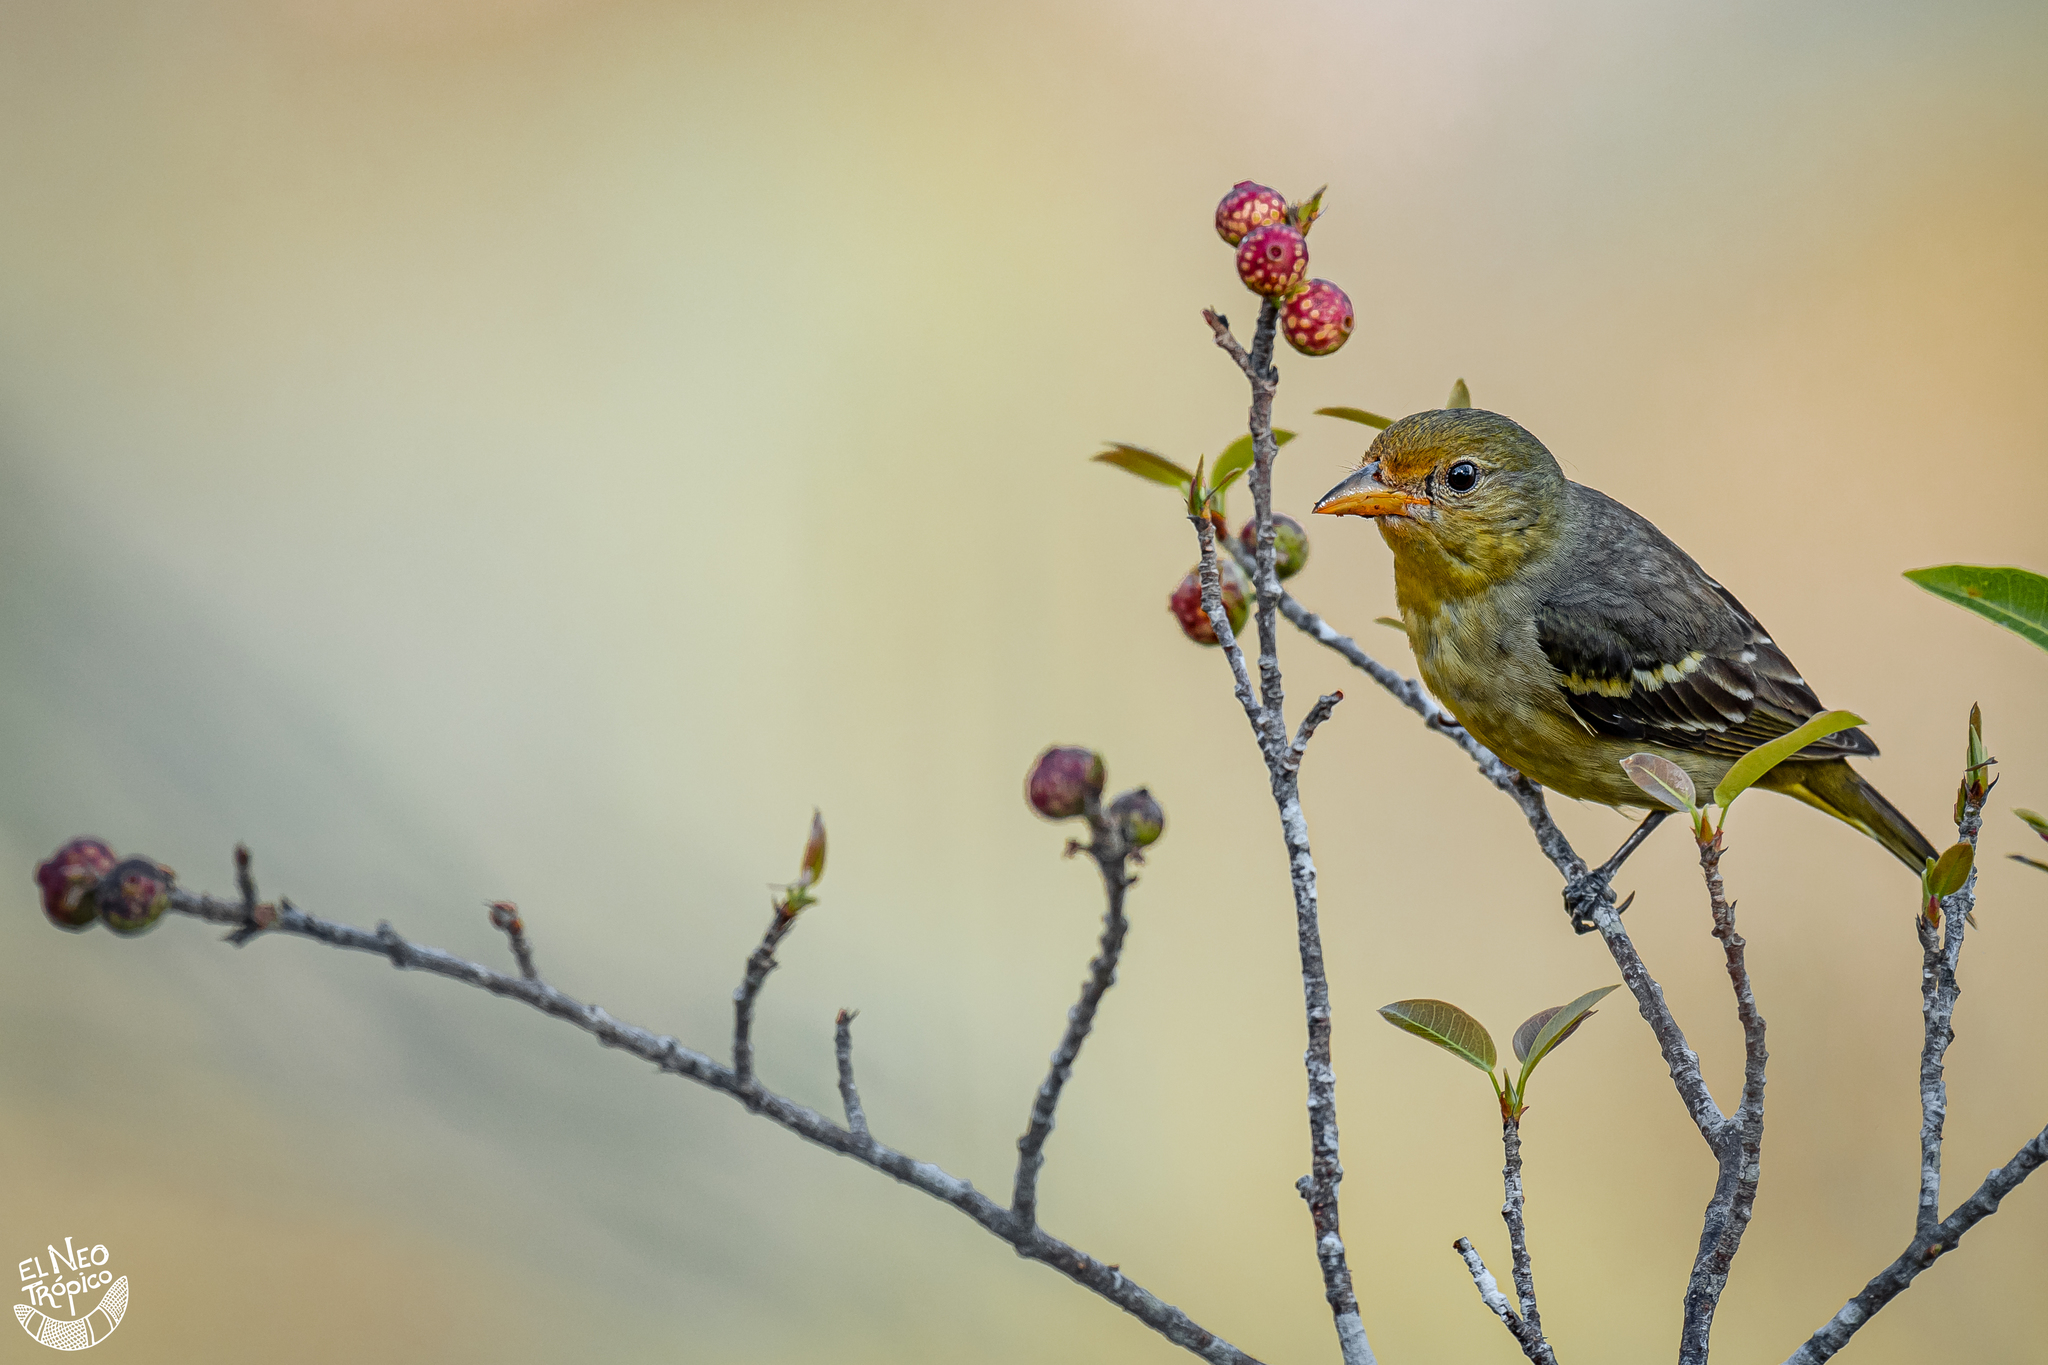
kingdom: Animalia
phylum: Chordata
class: Aves
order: Passeriformes
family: Cardinalidae
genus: Piranga
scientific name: Piranga ludoviciana
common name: Western tanager
